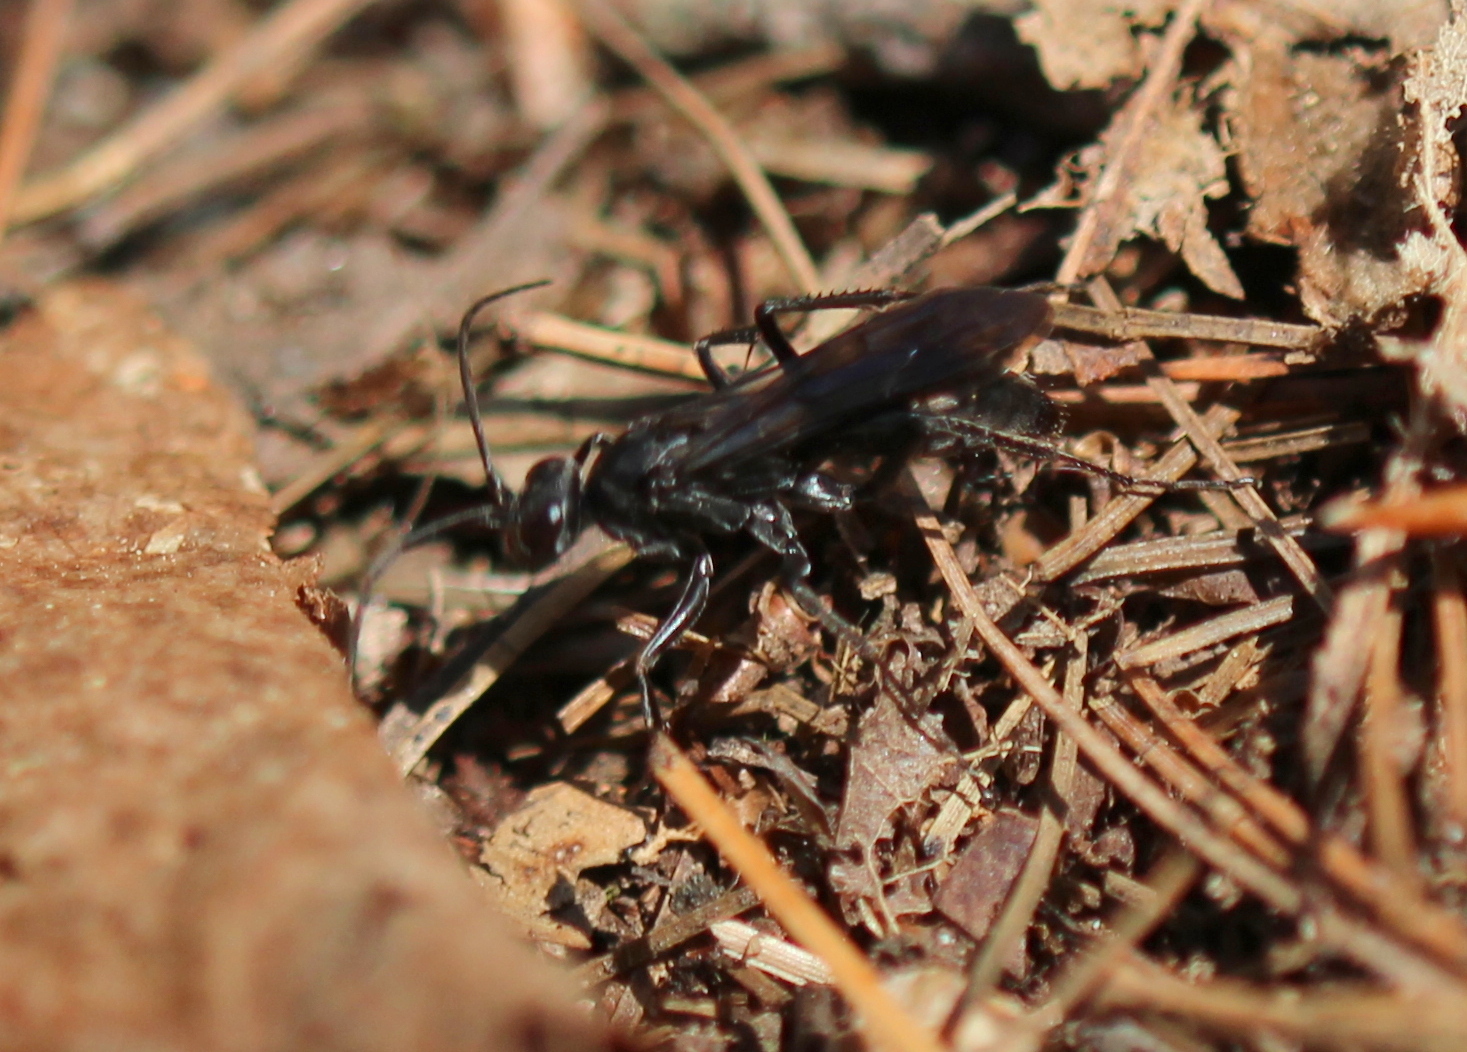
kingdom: Animalia
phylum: Arthropoda
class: Insecta
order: Hymenoptera
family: Pompilidae
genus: Priocnemis
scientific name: Priocnemis minorata
